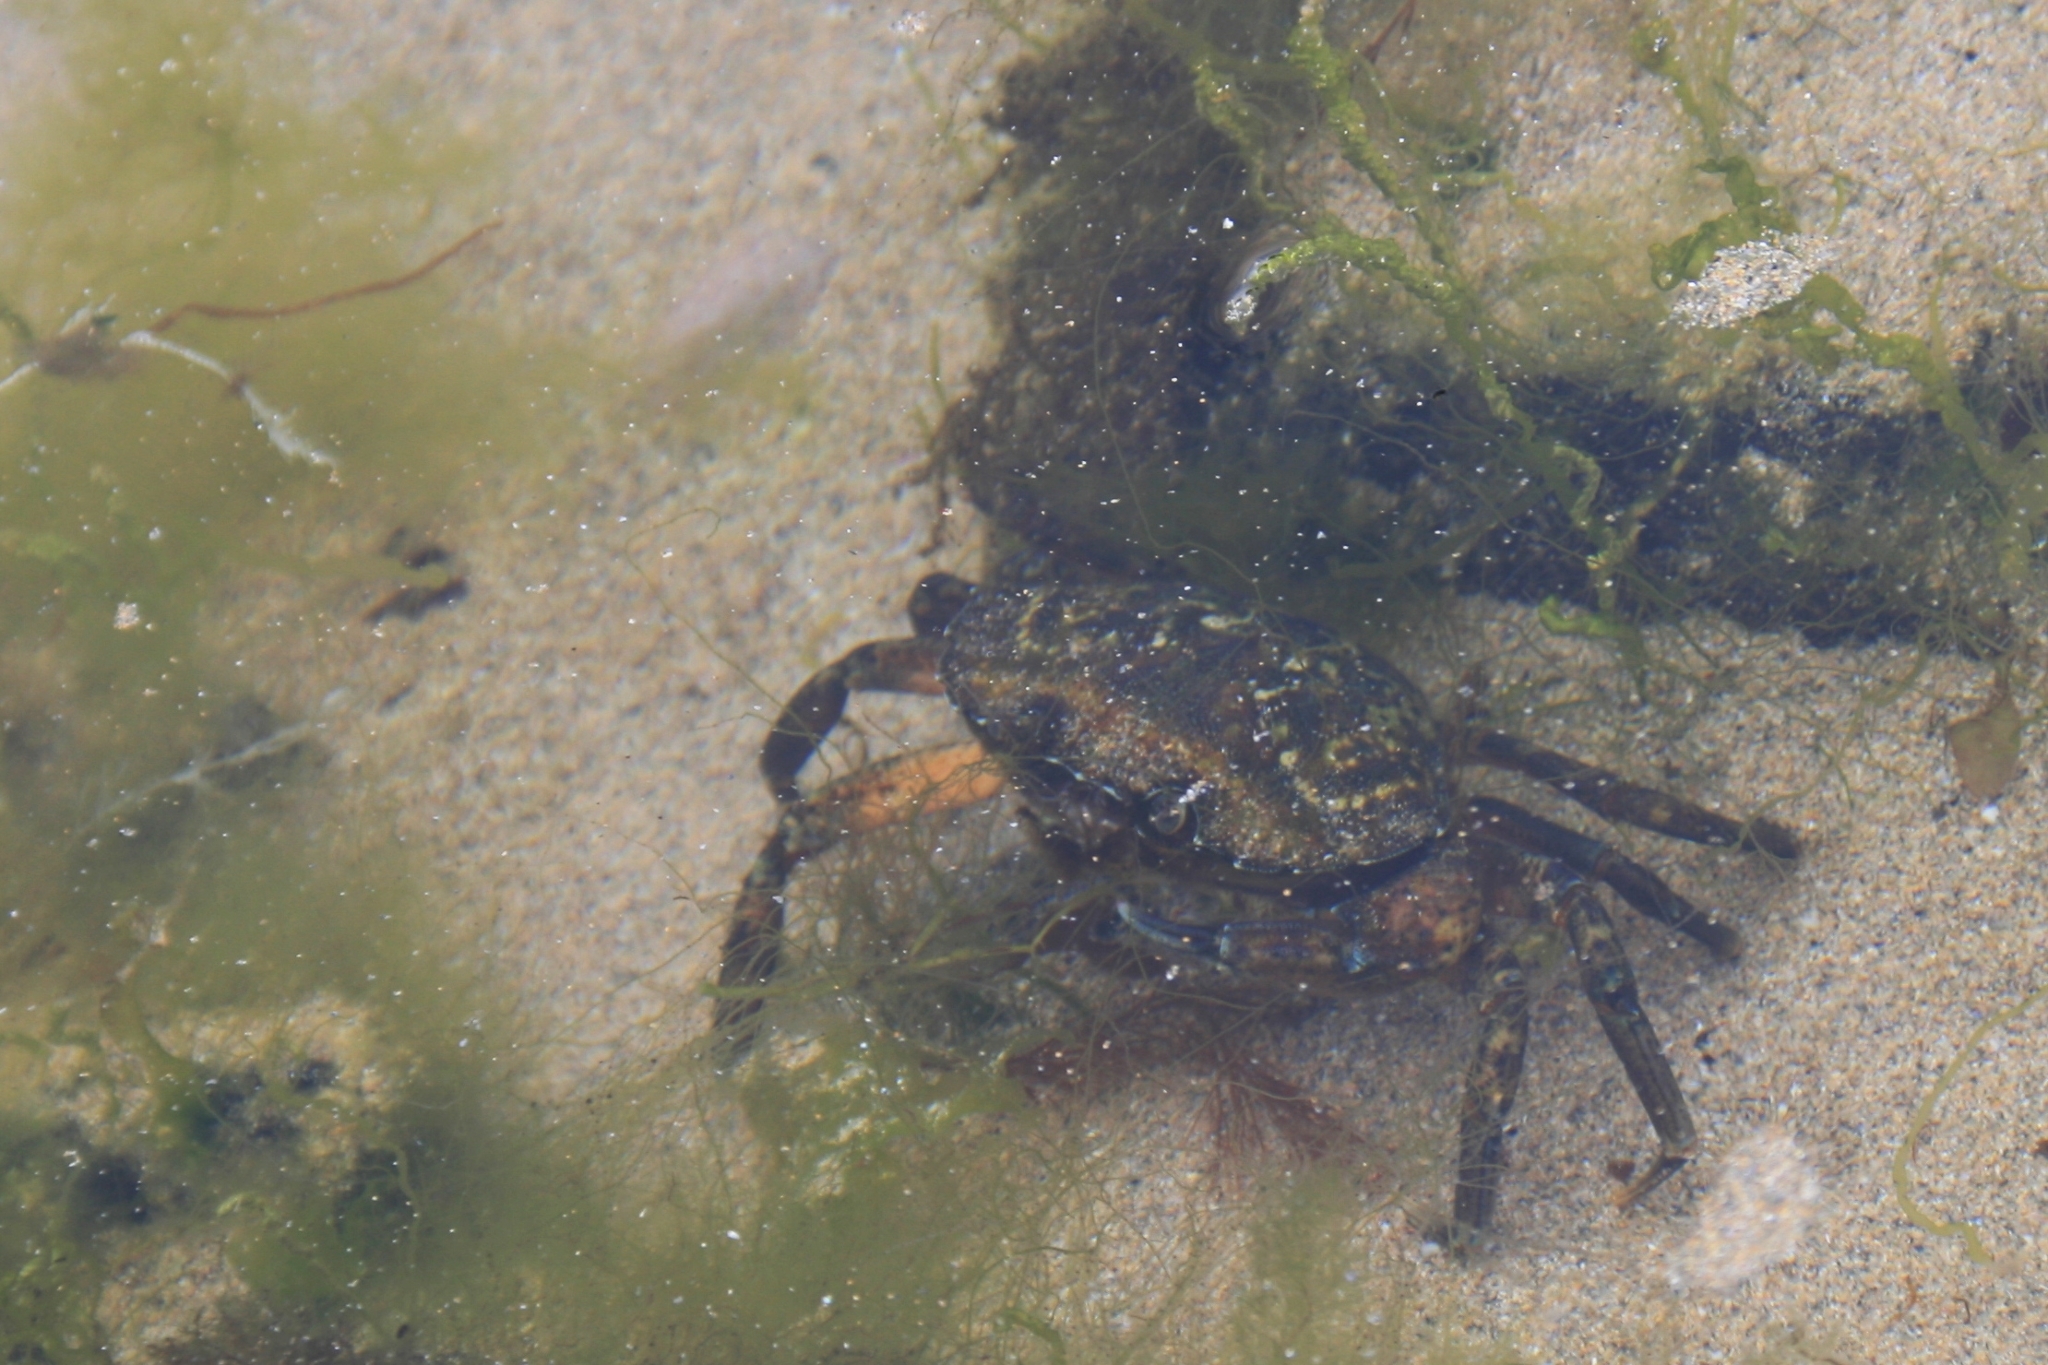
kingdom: Animalia
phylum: Arthropoda
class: Malacostraca
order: Decapoda
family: Carcinidae
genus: Carcinus
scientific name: Carcinus maenas
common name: European green crab
